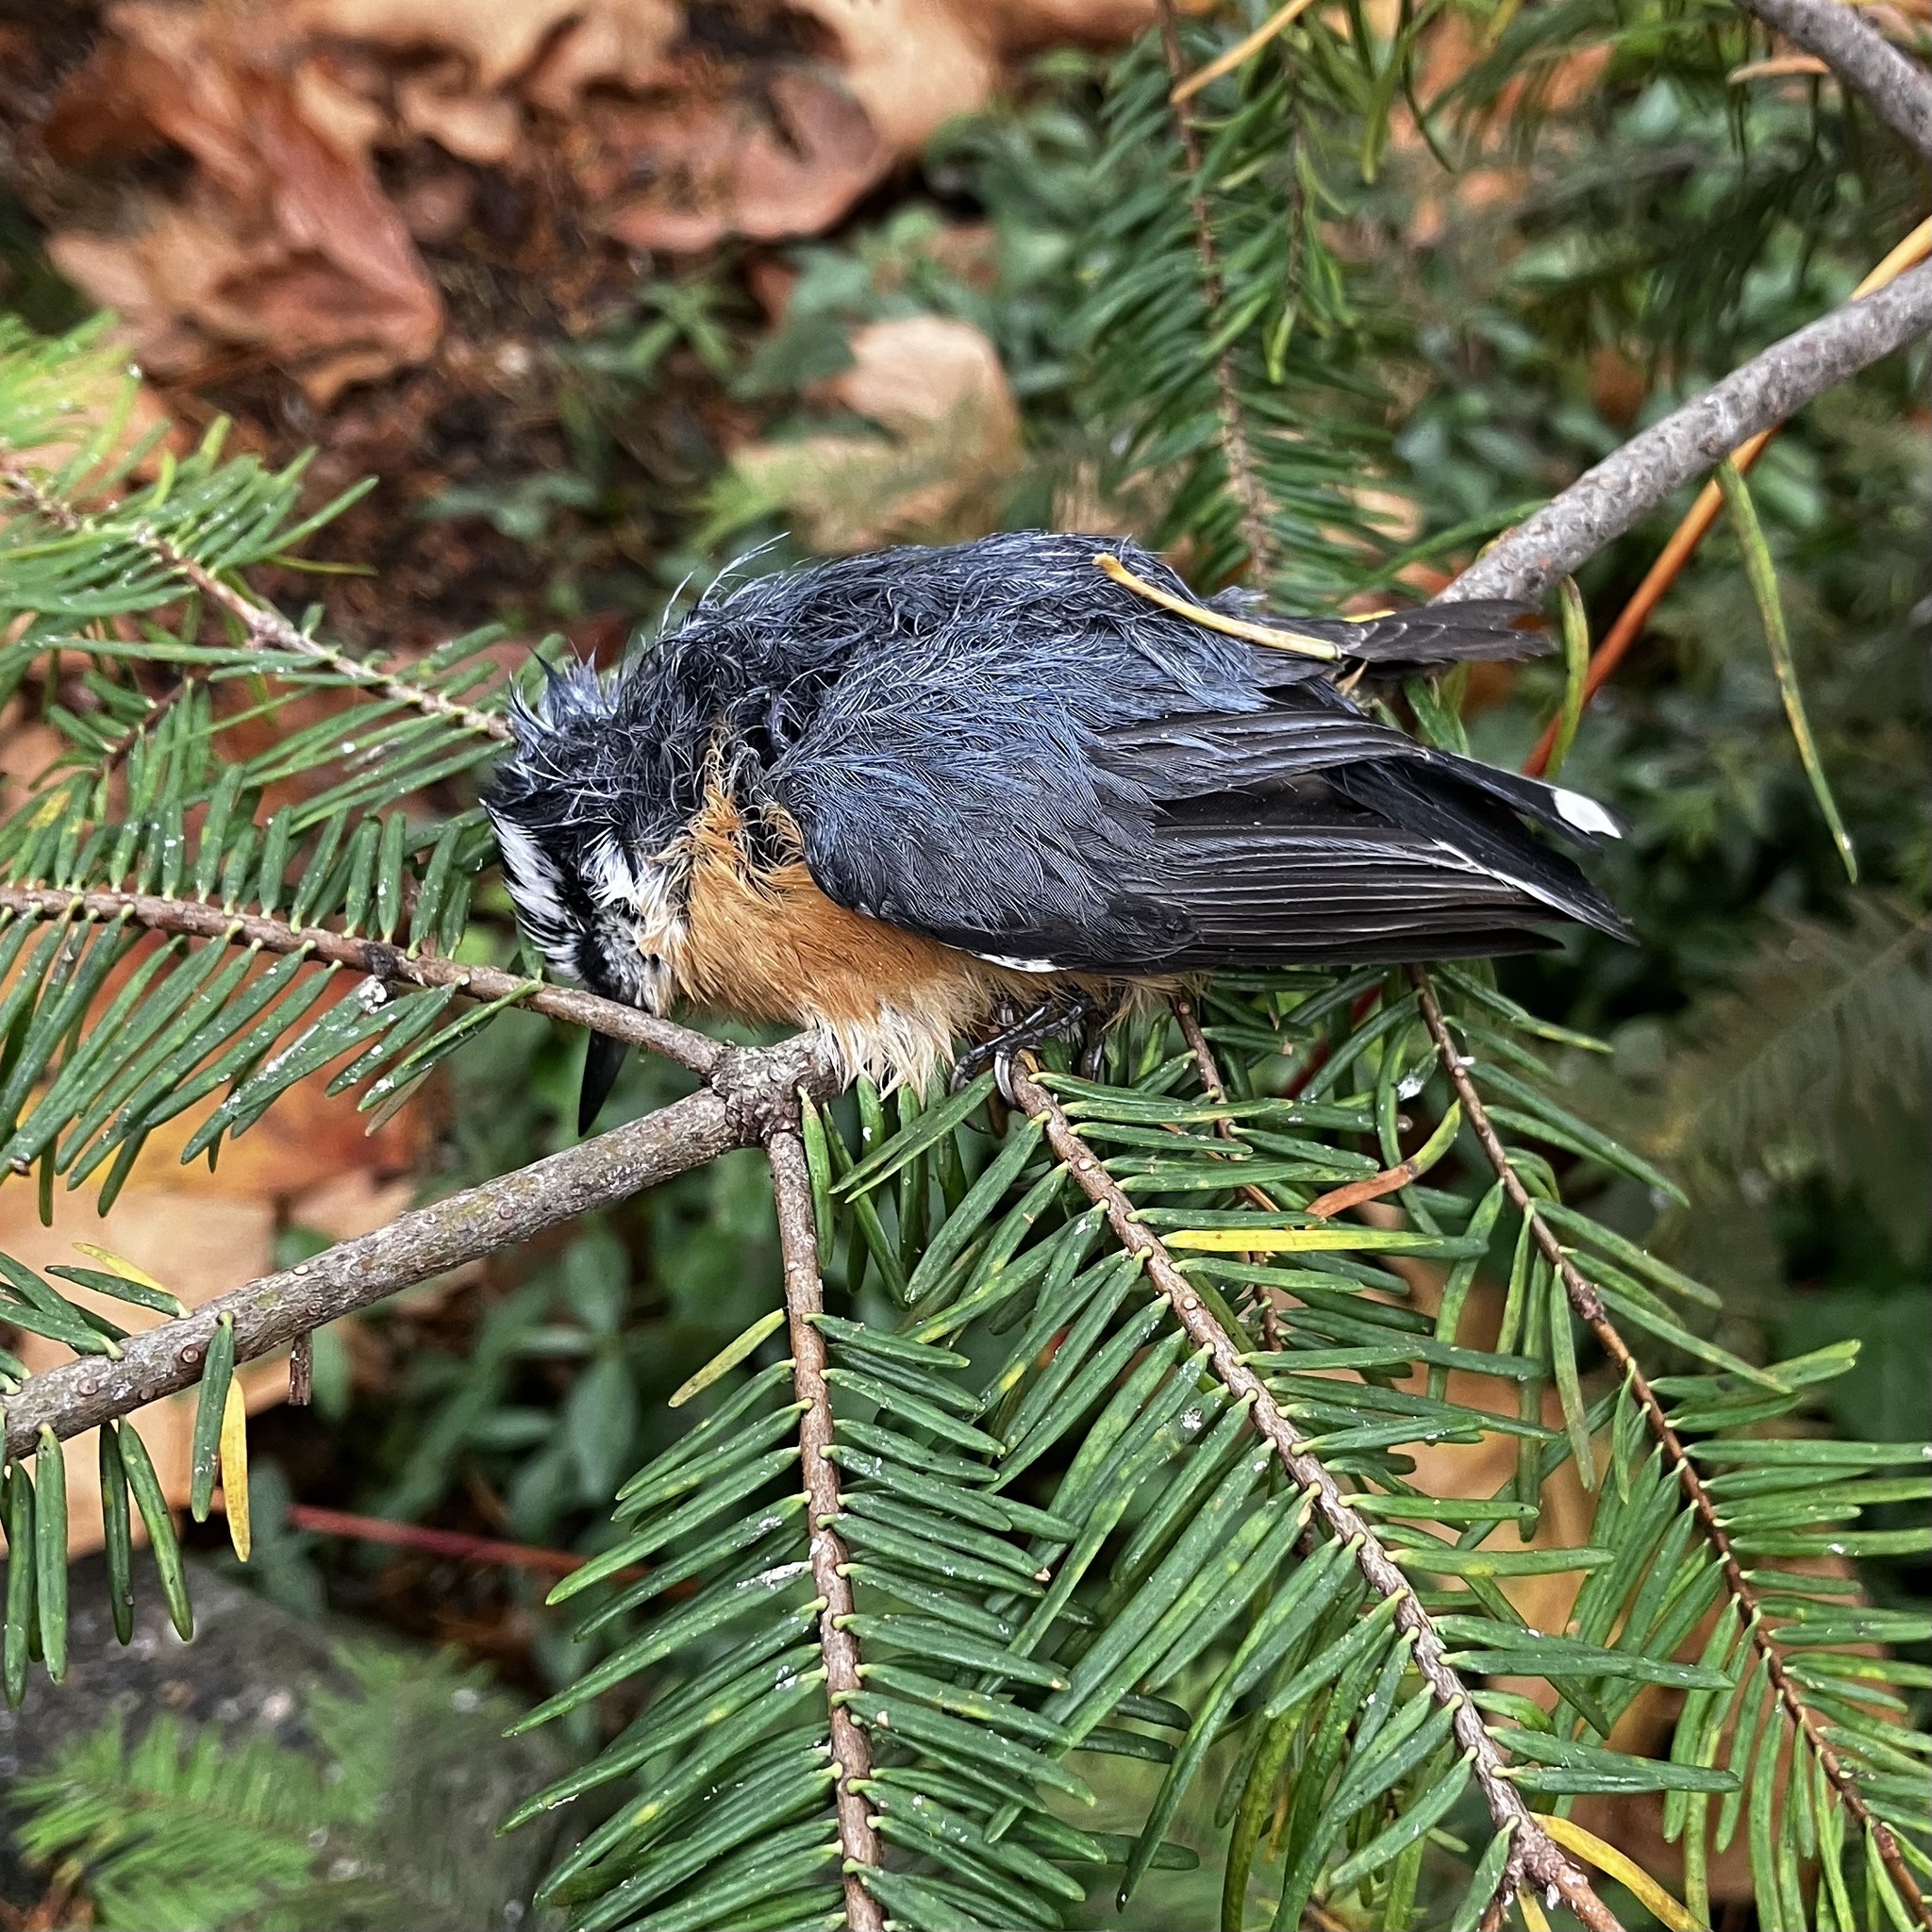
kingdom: Animalia
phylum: Chordata
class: Aves
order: Passeriformes
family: Sittidae
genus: Sitta
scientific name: Sitta canadensis
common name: Red-breasted nuthatch
